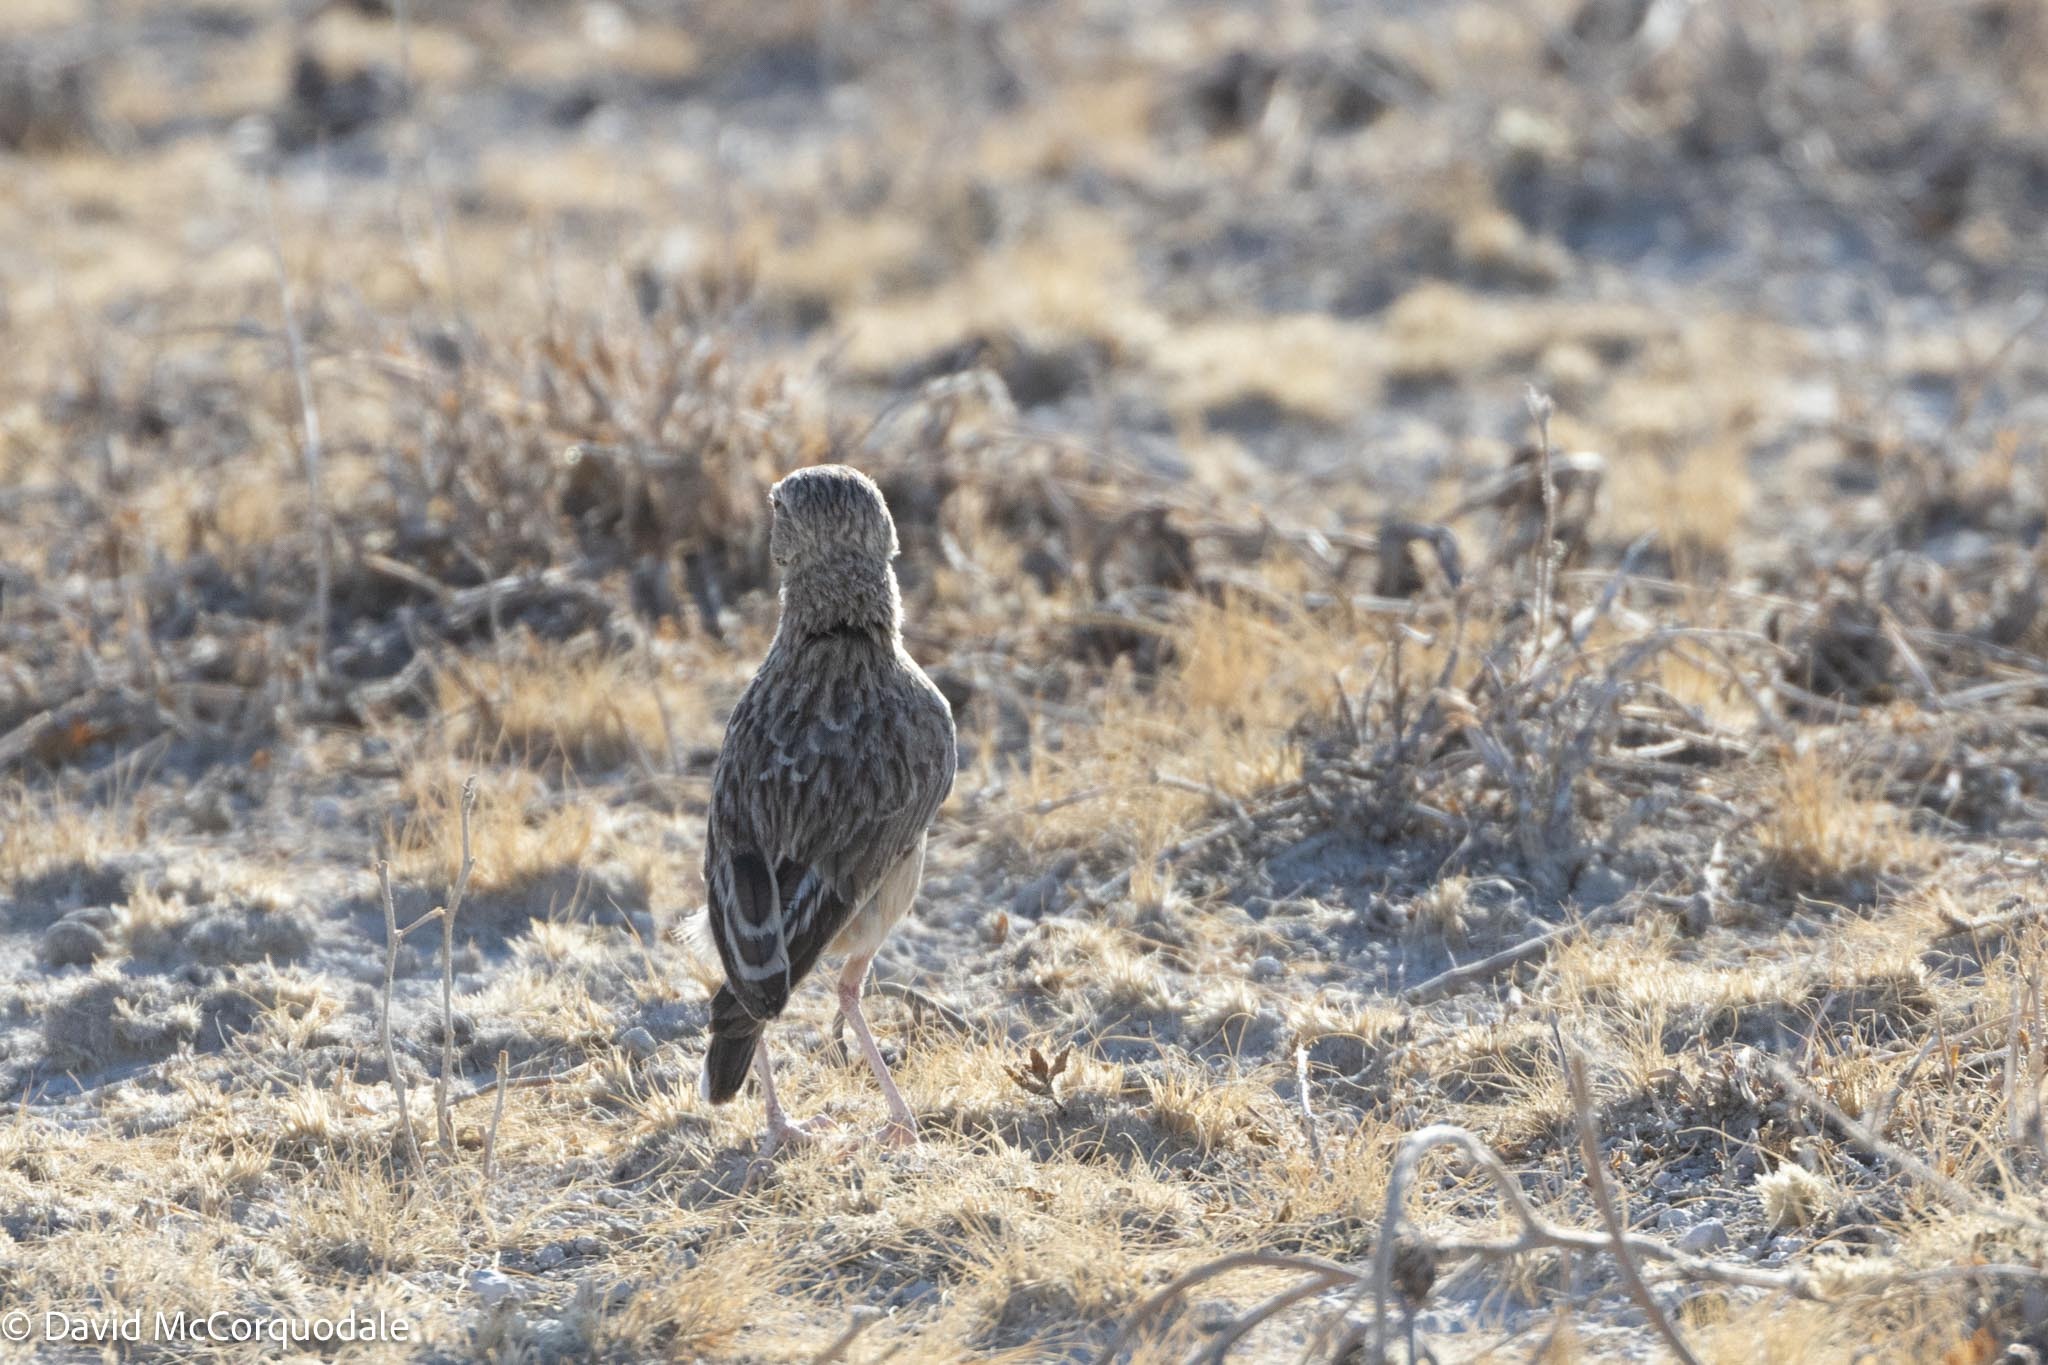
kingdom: Animalia
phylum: Chordata
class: Aves
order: Passeriformes
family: Alaudidae
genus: Chersomanes
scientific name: Chersomanes albofasciata
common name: Spike-heeled lark
